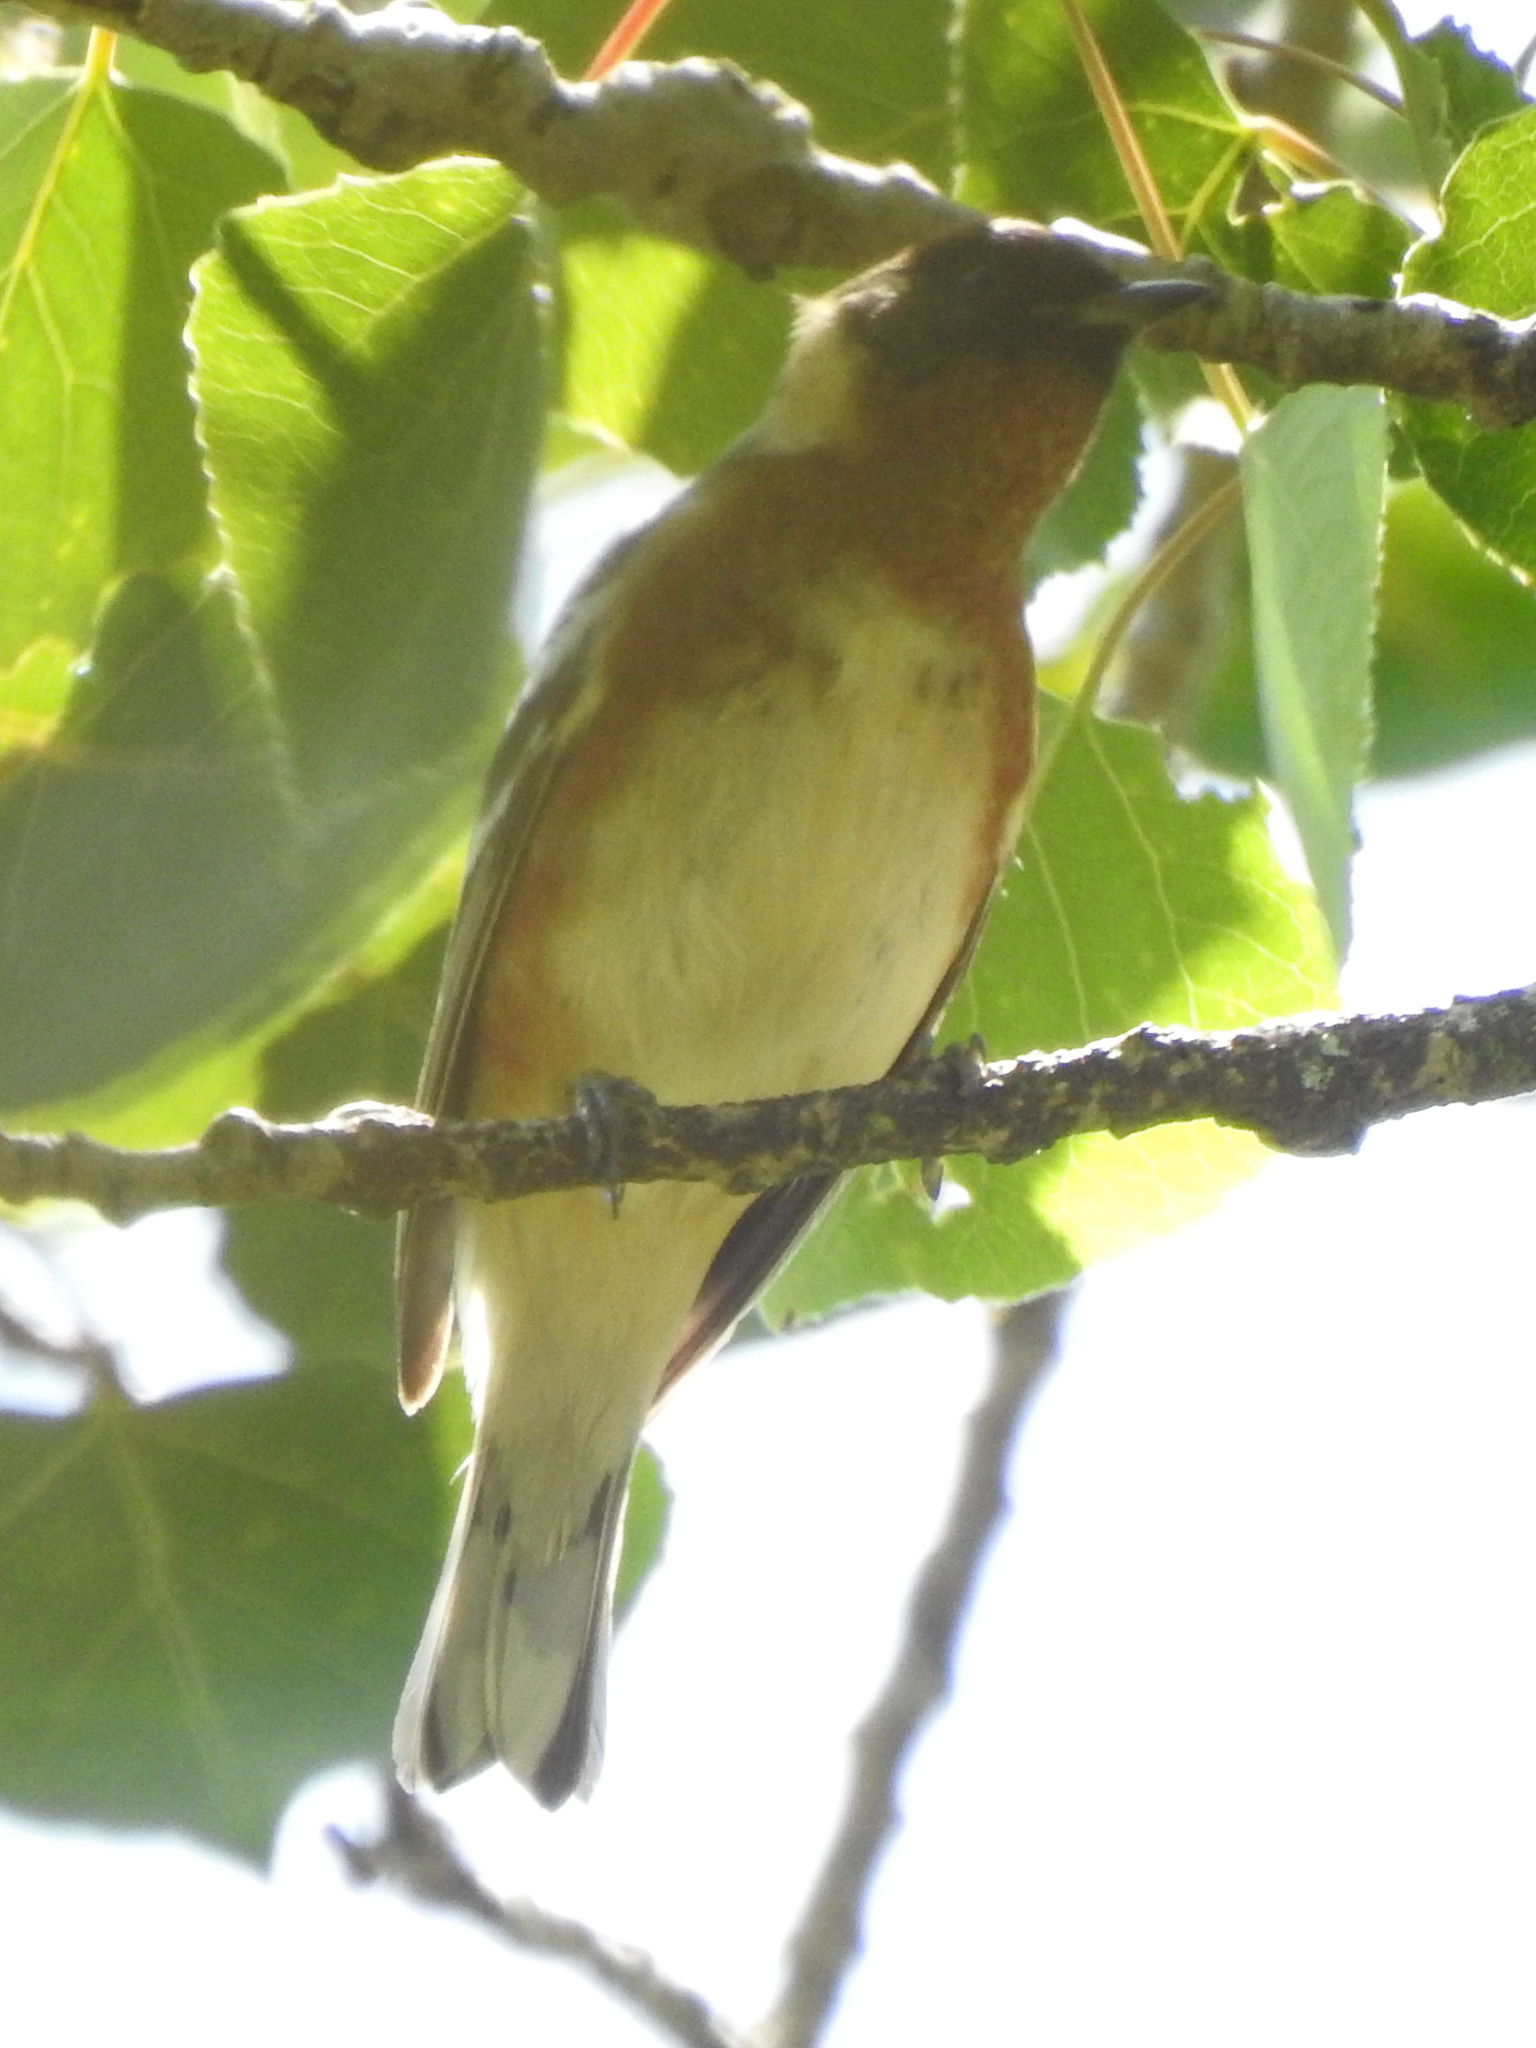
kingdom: Animalia
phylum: Chordata
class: Aves
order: Passeriformes
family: Parulidae
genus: Setophaga
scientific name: Setophaga castanea
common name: Bay-breasted warbler
